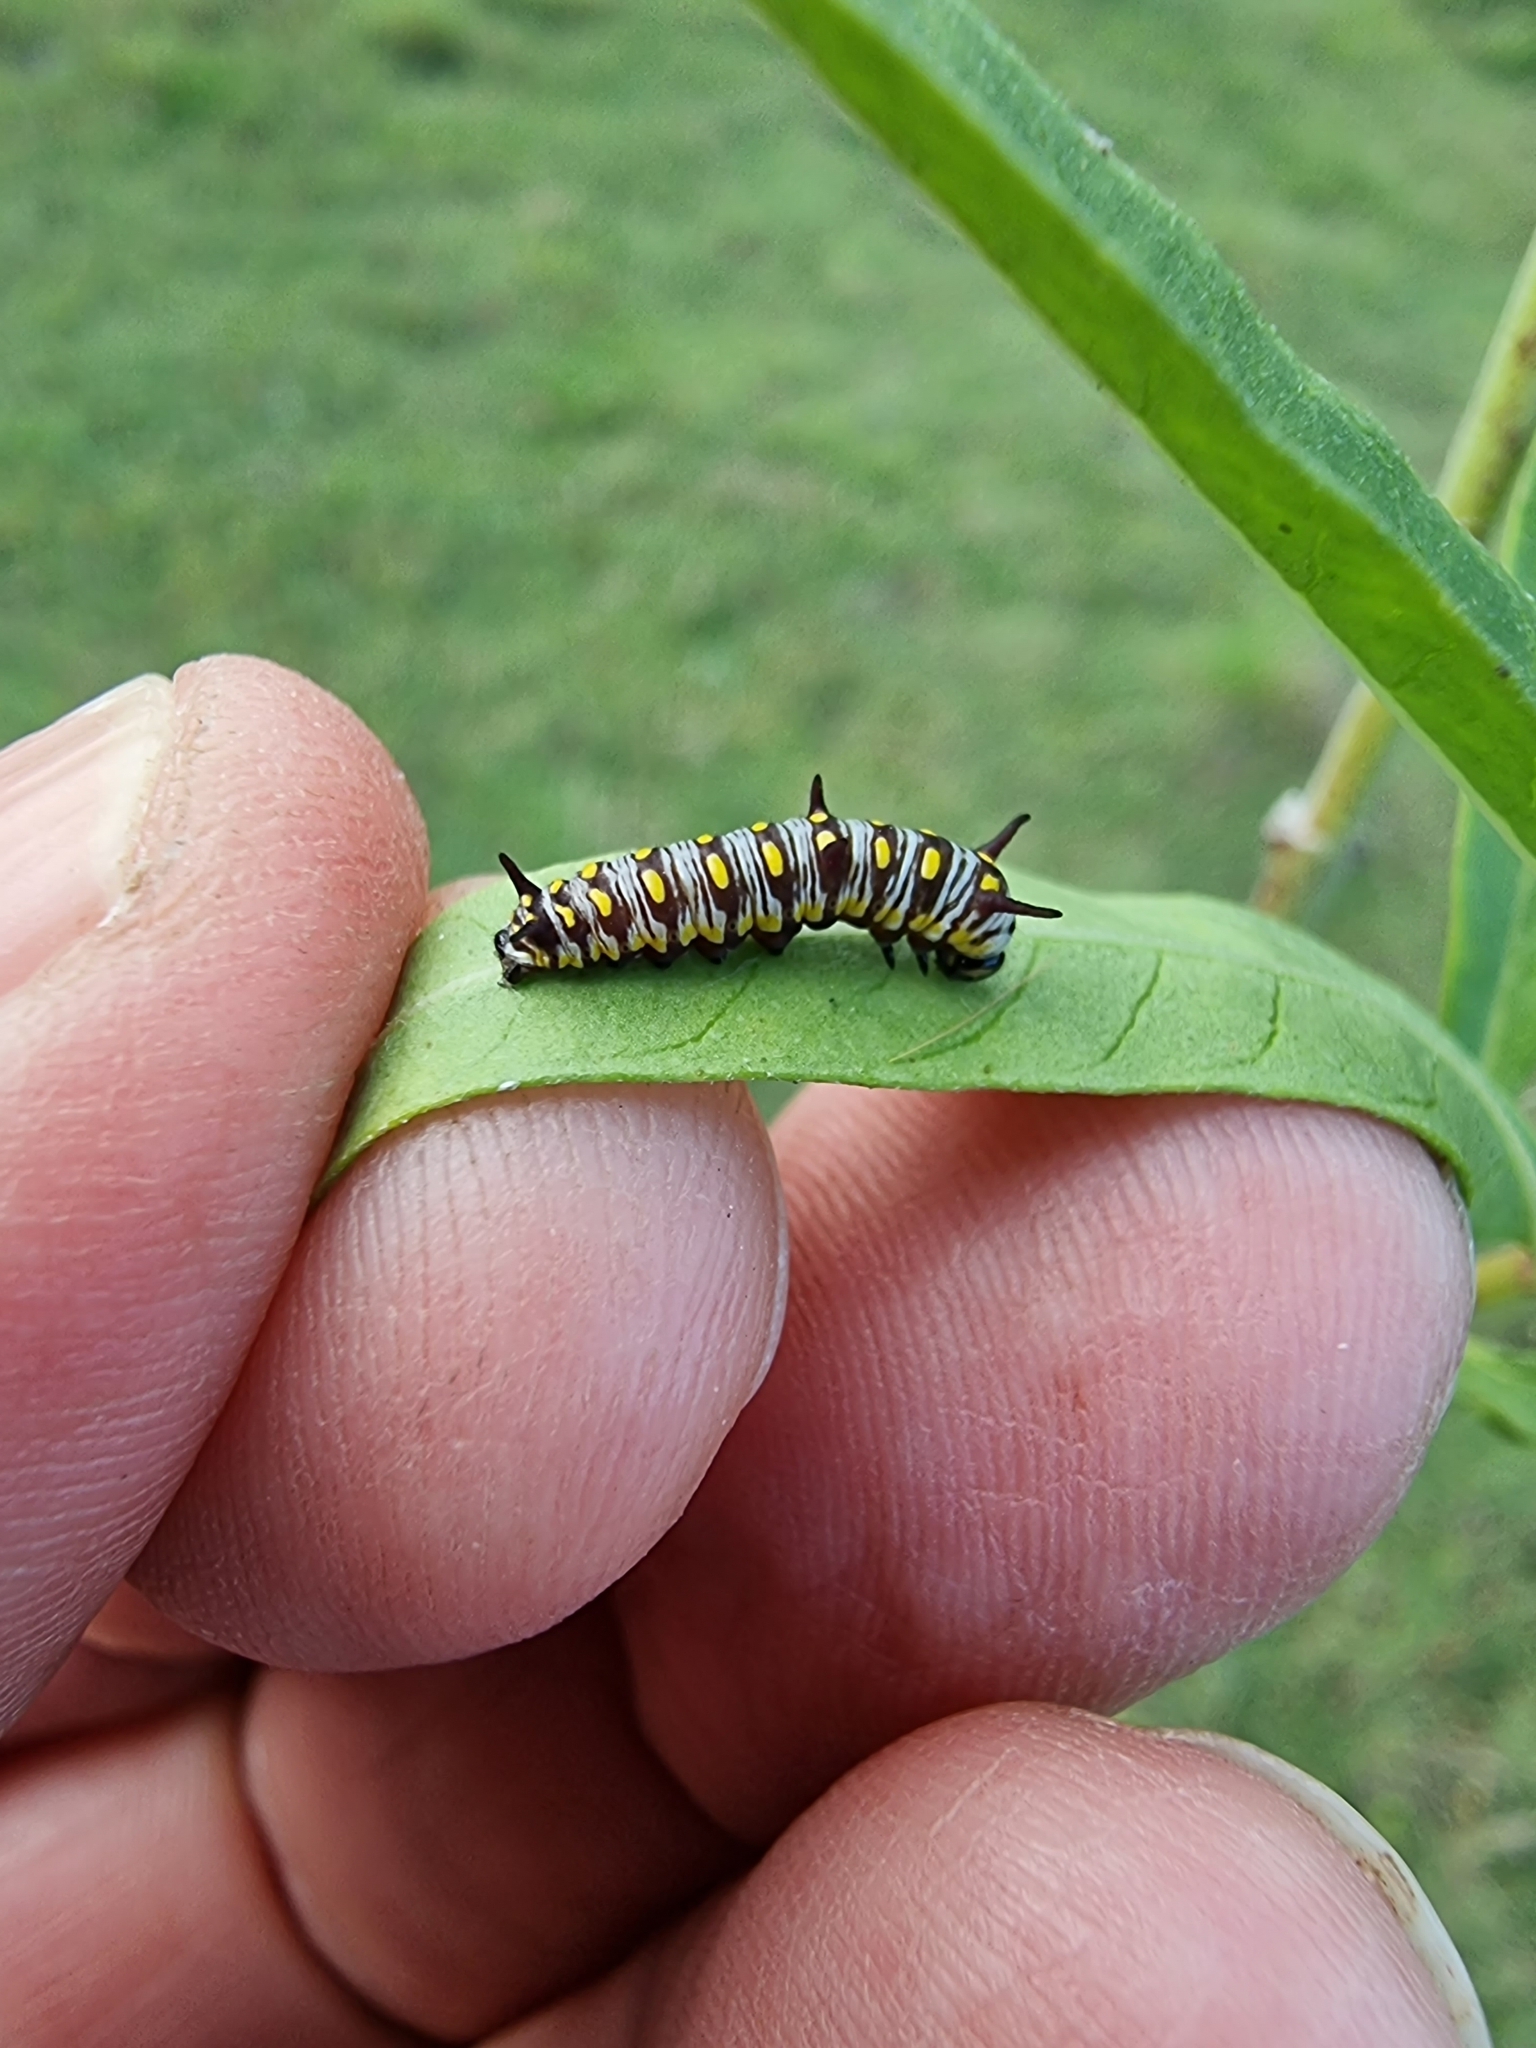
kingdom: Animalia
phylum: Arthropoda
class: Insecta
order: Lepidoptera
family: Nymphalidae
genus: Danaus
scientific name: Danaus chrysippus
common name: Plain tiger
